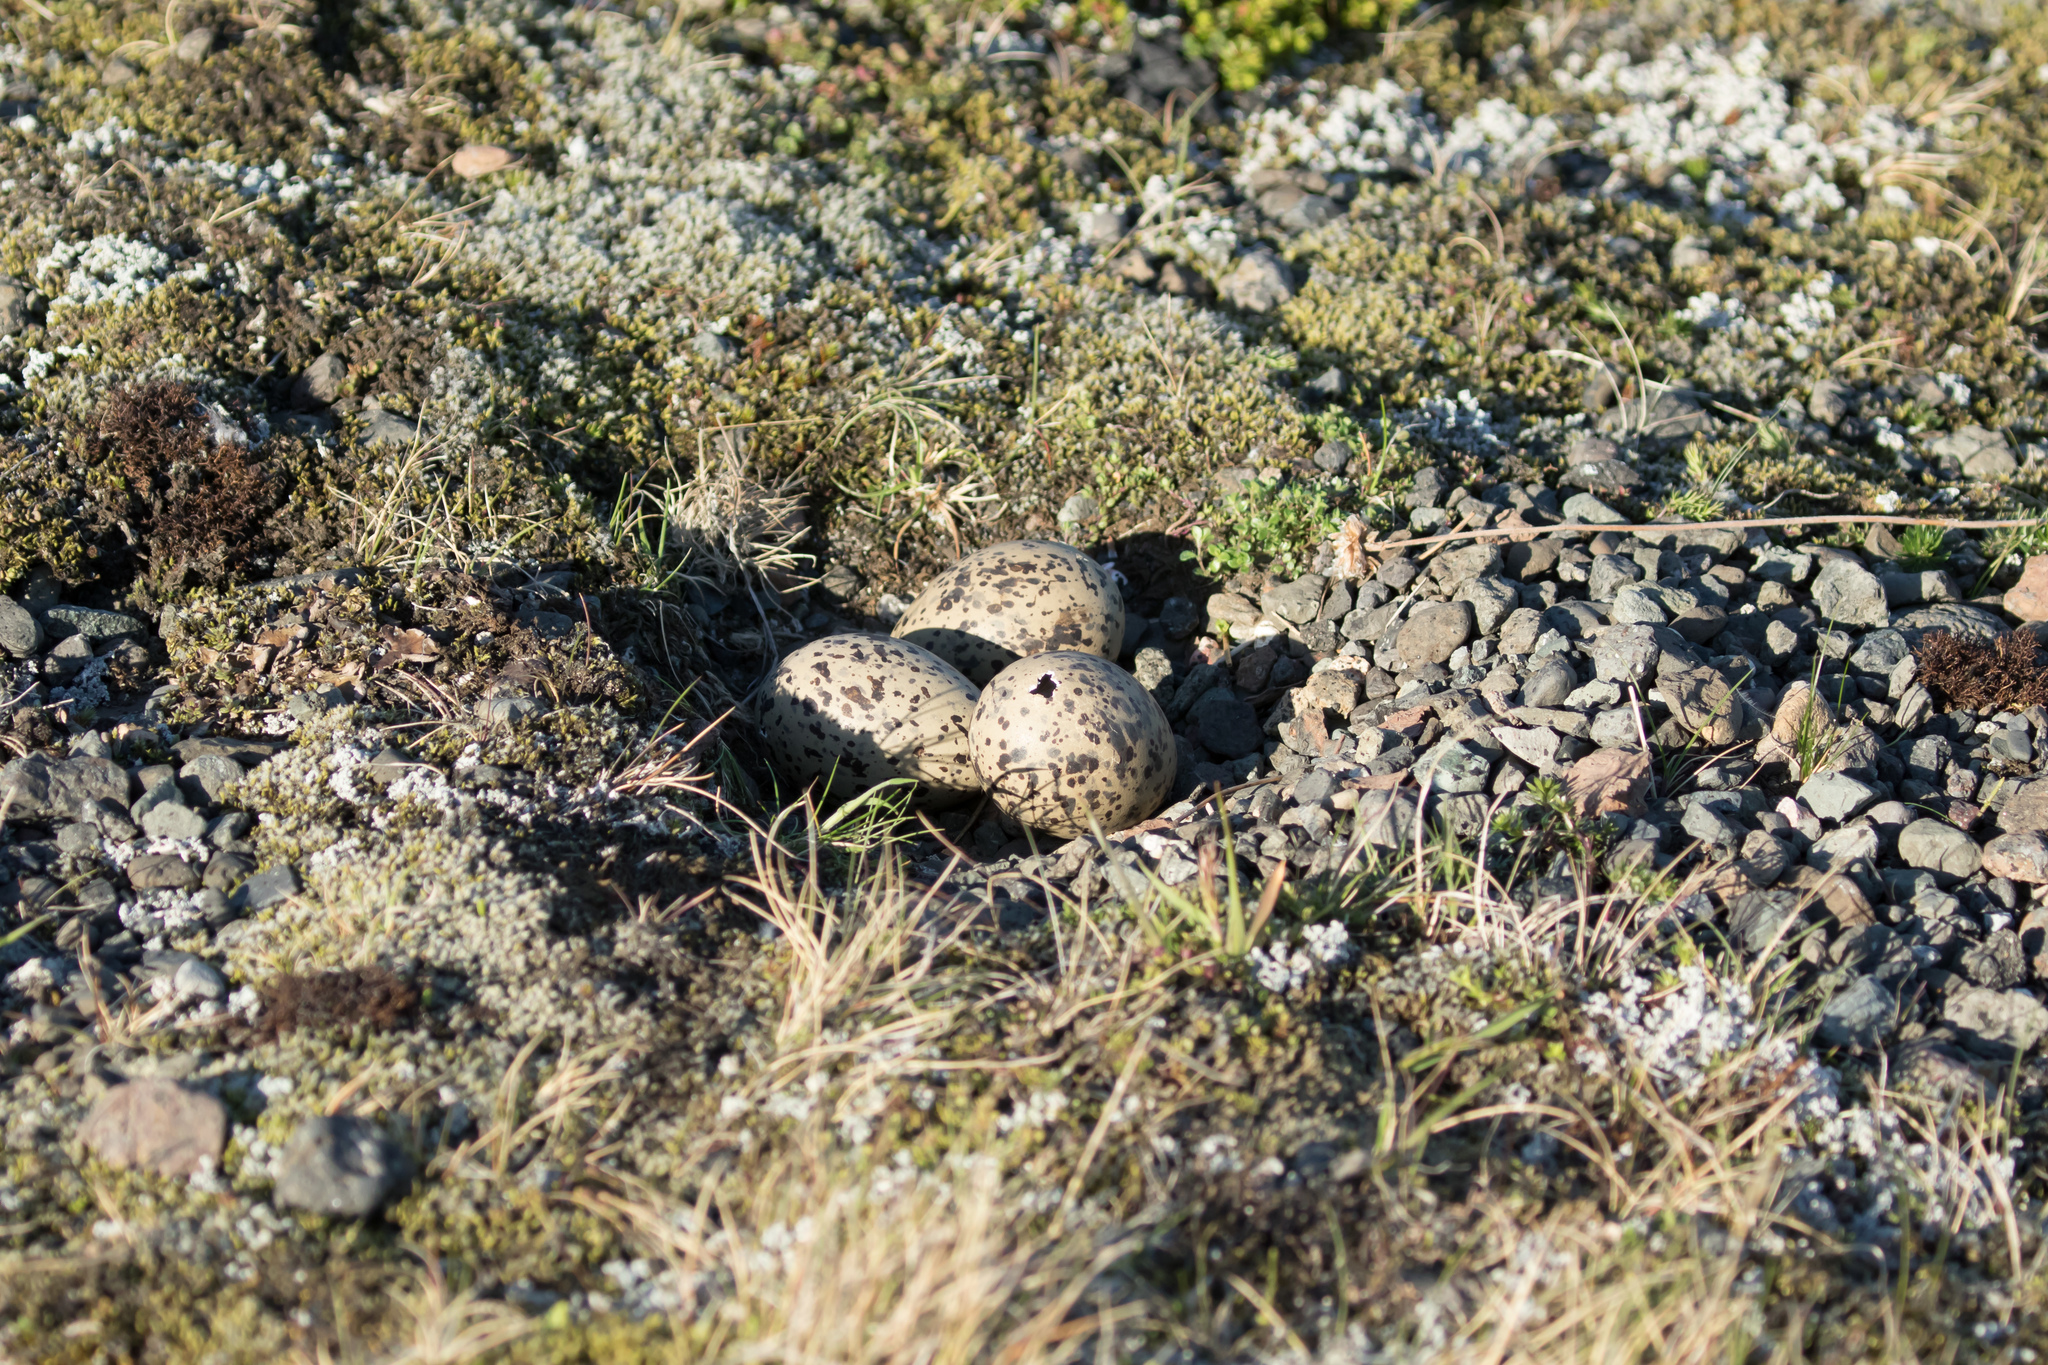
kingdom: Animalia
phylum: Chordata
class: Aves
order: Charadriiformes
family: Haematopodidae
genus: Haematopus
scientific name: Haematopus ostralegus
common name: Eurasian oystercatcher
